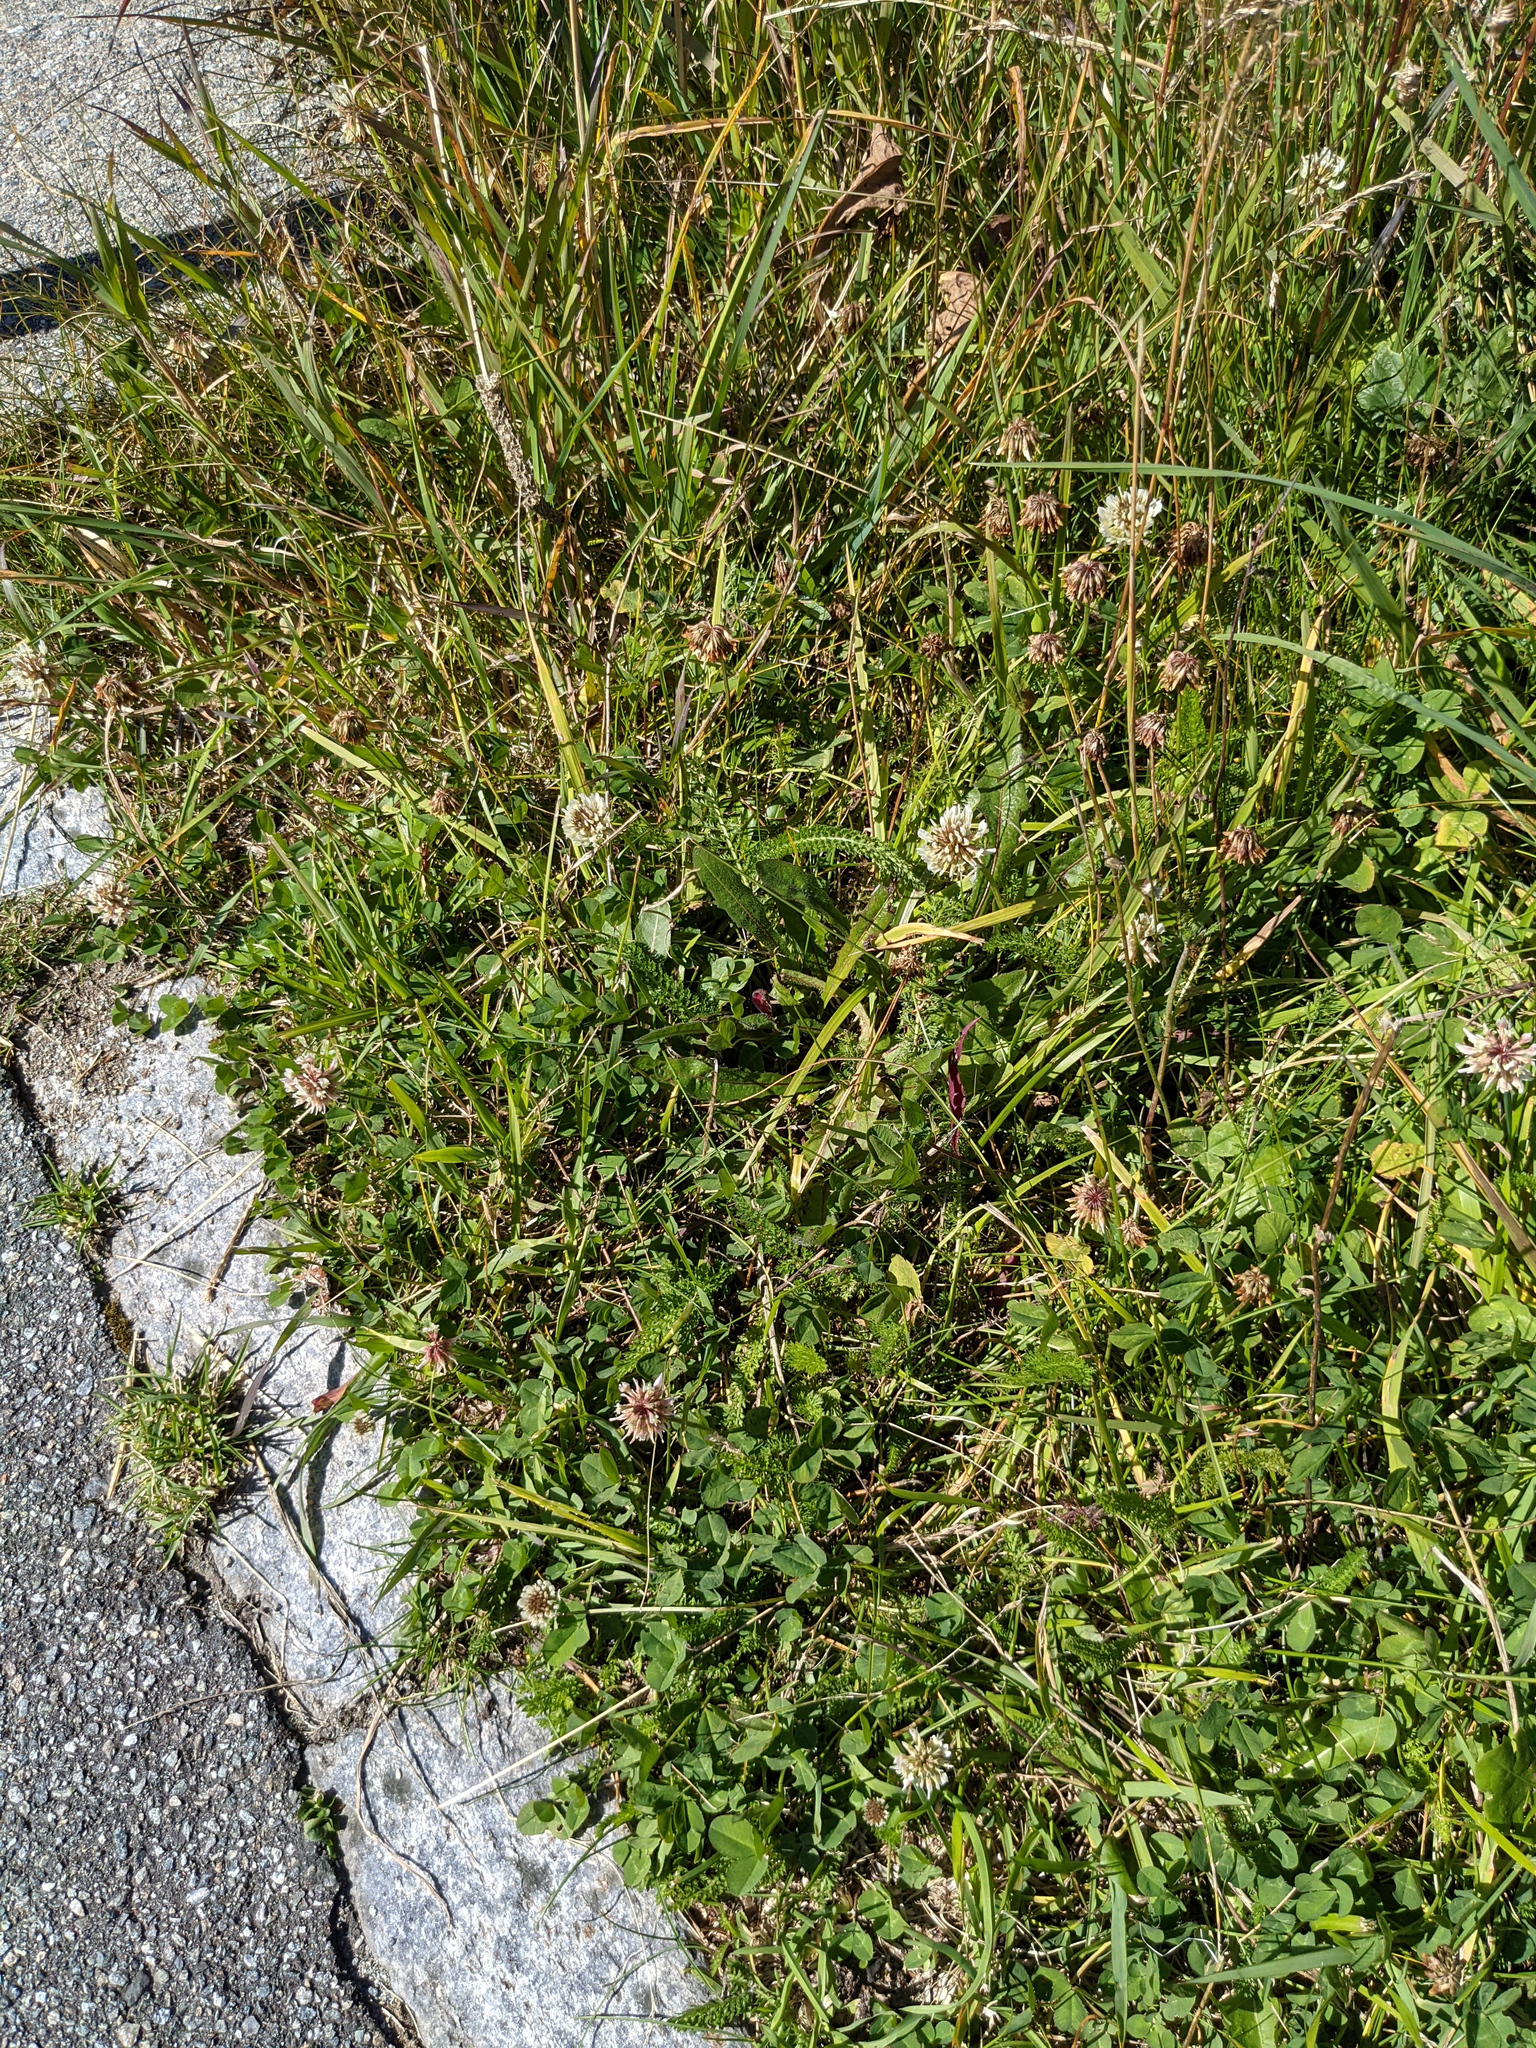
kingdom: Plantae
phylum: Tracheophyta
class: Magnoliopsida
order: Fabales
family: Fabaceae
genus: Trifolium
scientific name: Trifolium repens
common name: White clover
